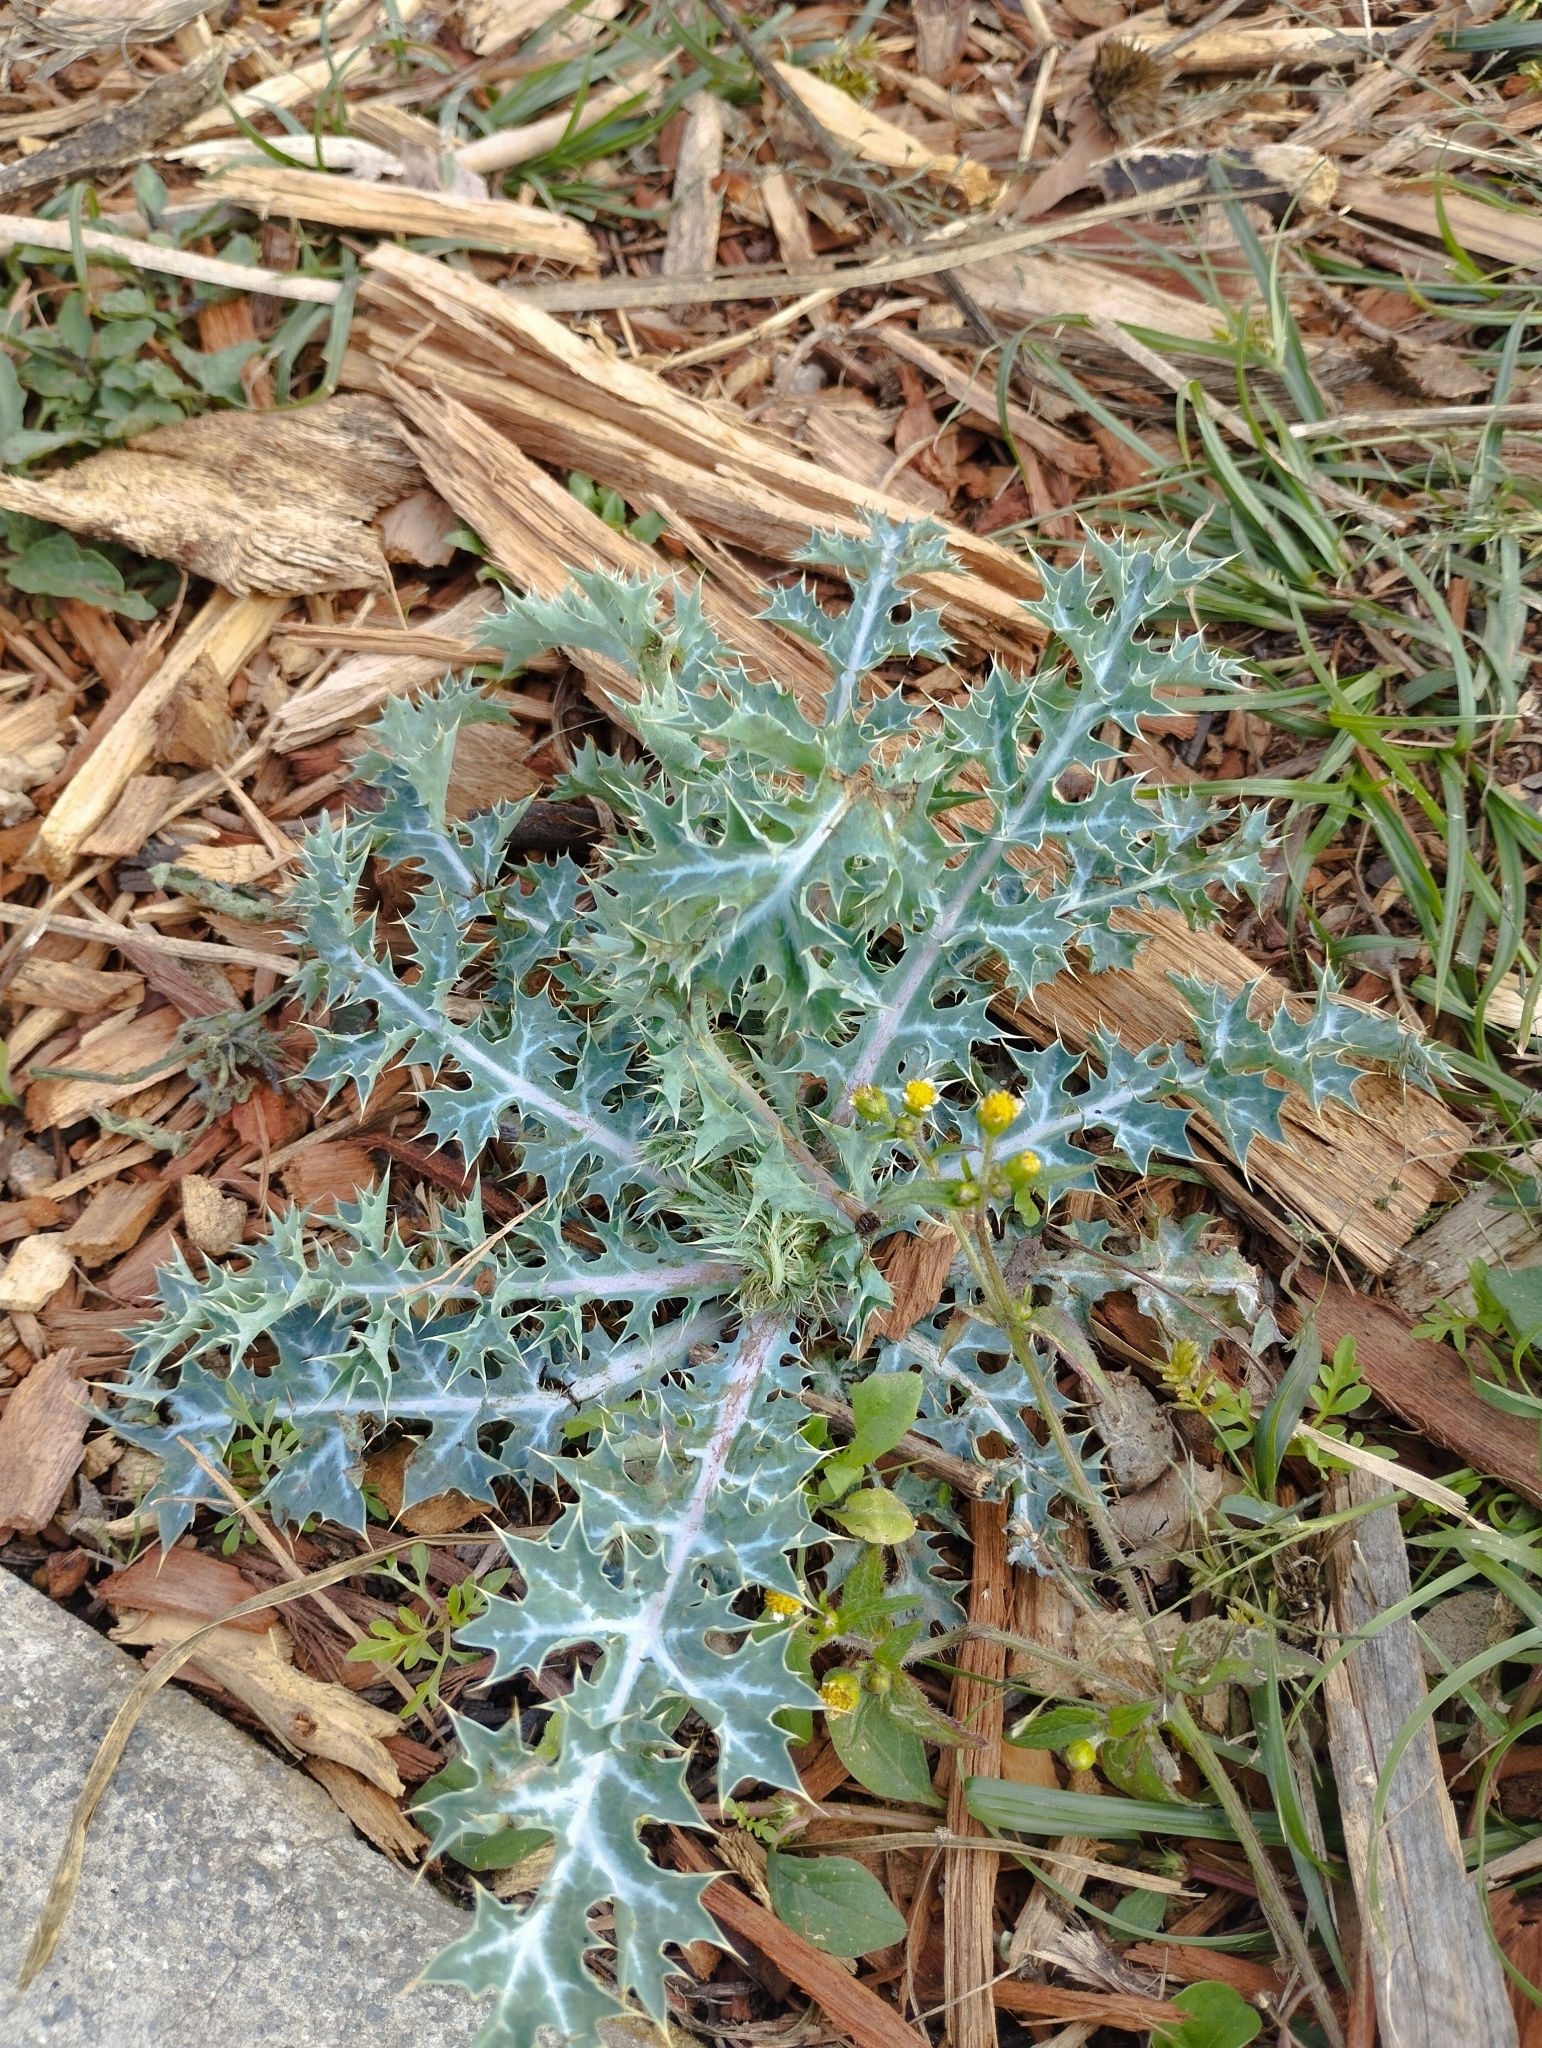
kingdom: Plantae
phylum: Tracheophyta
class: Magnoliopsida
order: Ranunculales
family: Papaveraceae
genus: Argemone
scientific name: Argemone platyceras
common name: Crested-poppy
